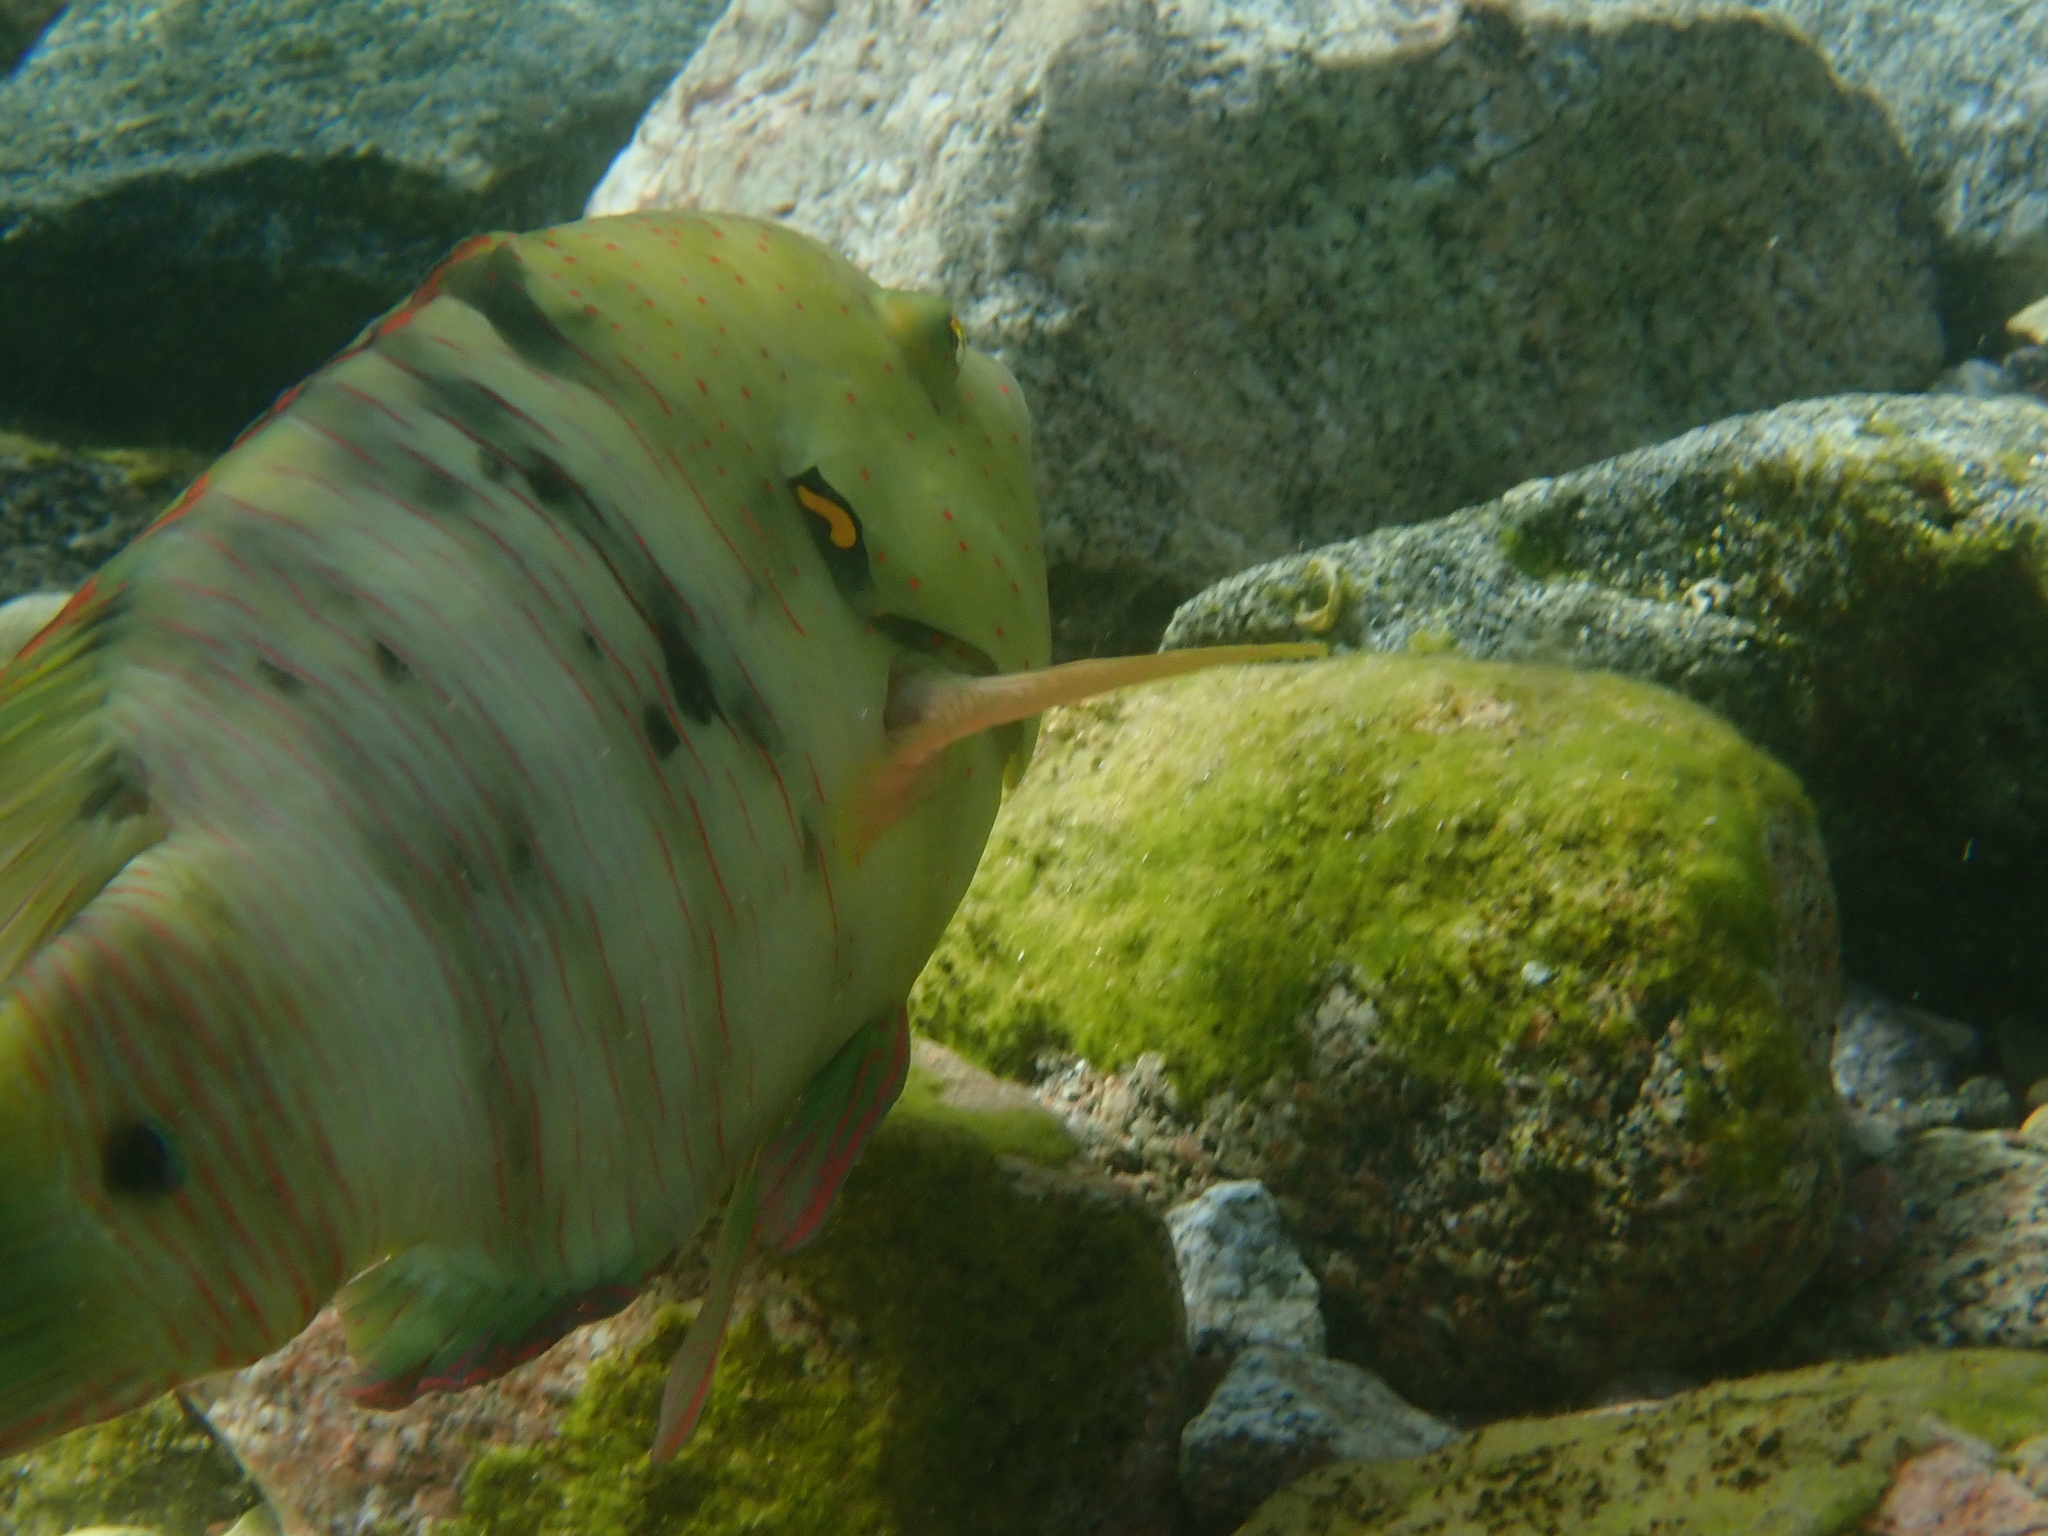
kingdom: Animalia
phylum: Chordata
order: Perciformes
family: Labridae
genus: Cheilinus
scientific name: Cheilinus lunulatus
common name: Broomtail wrasse
